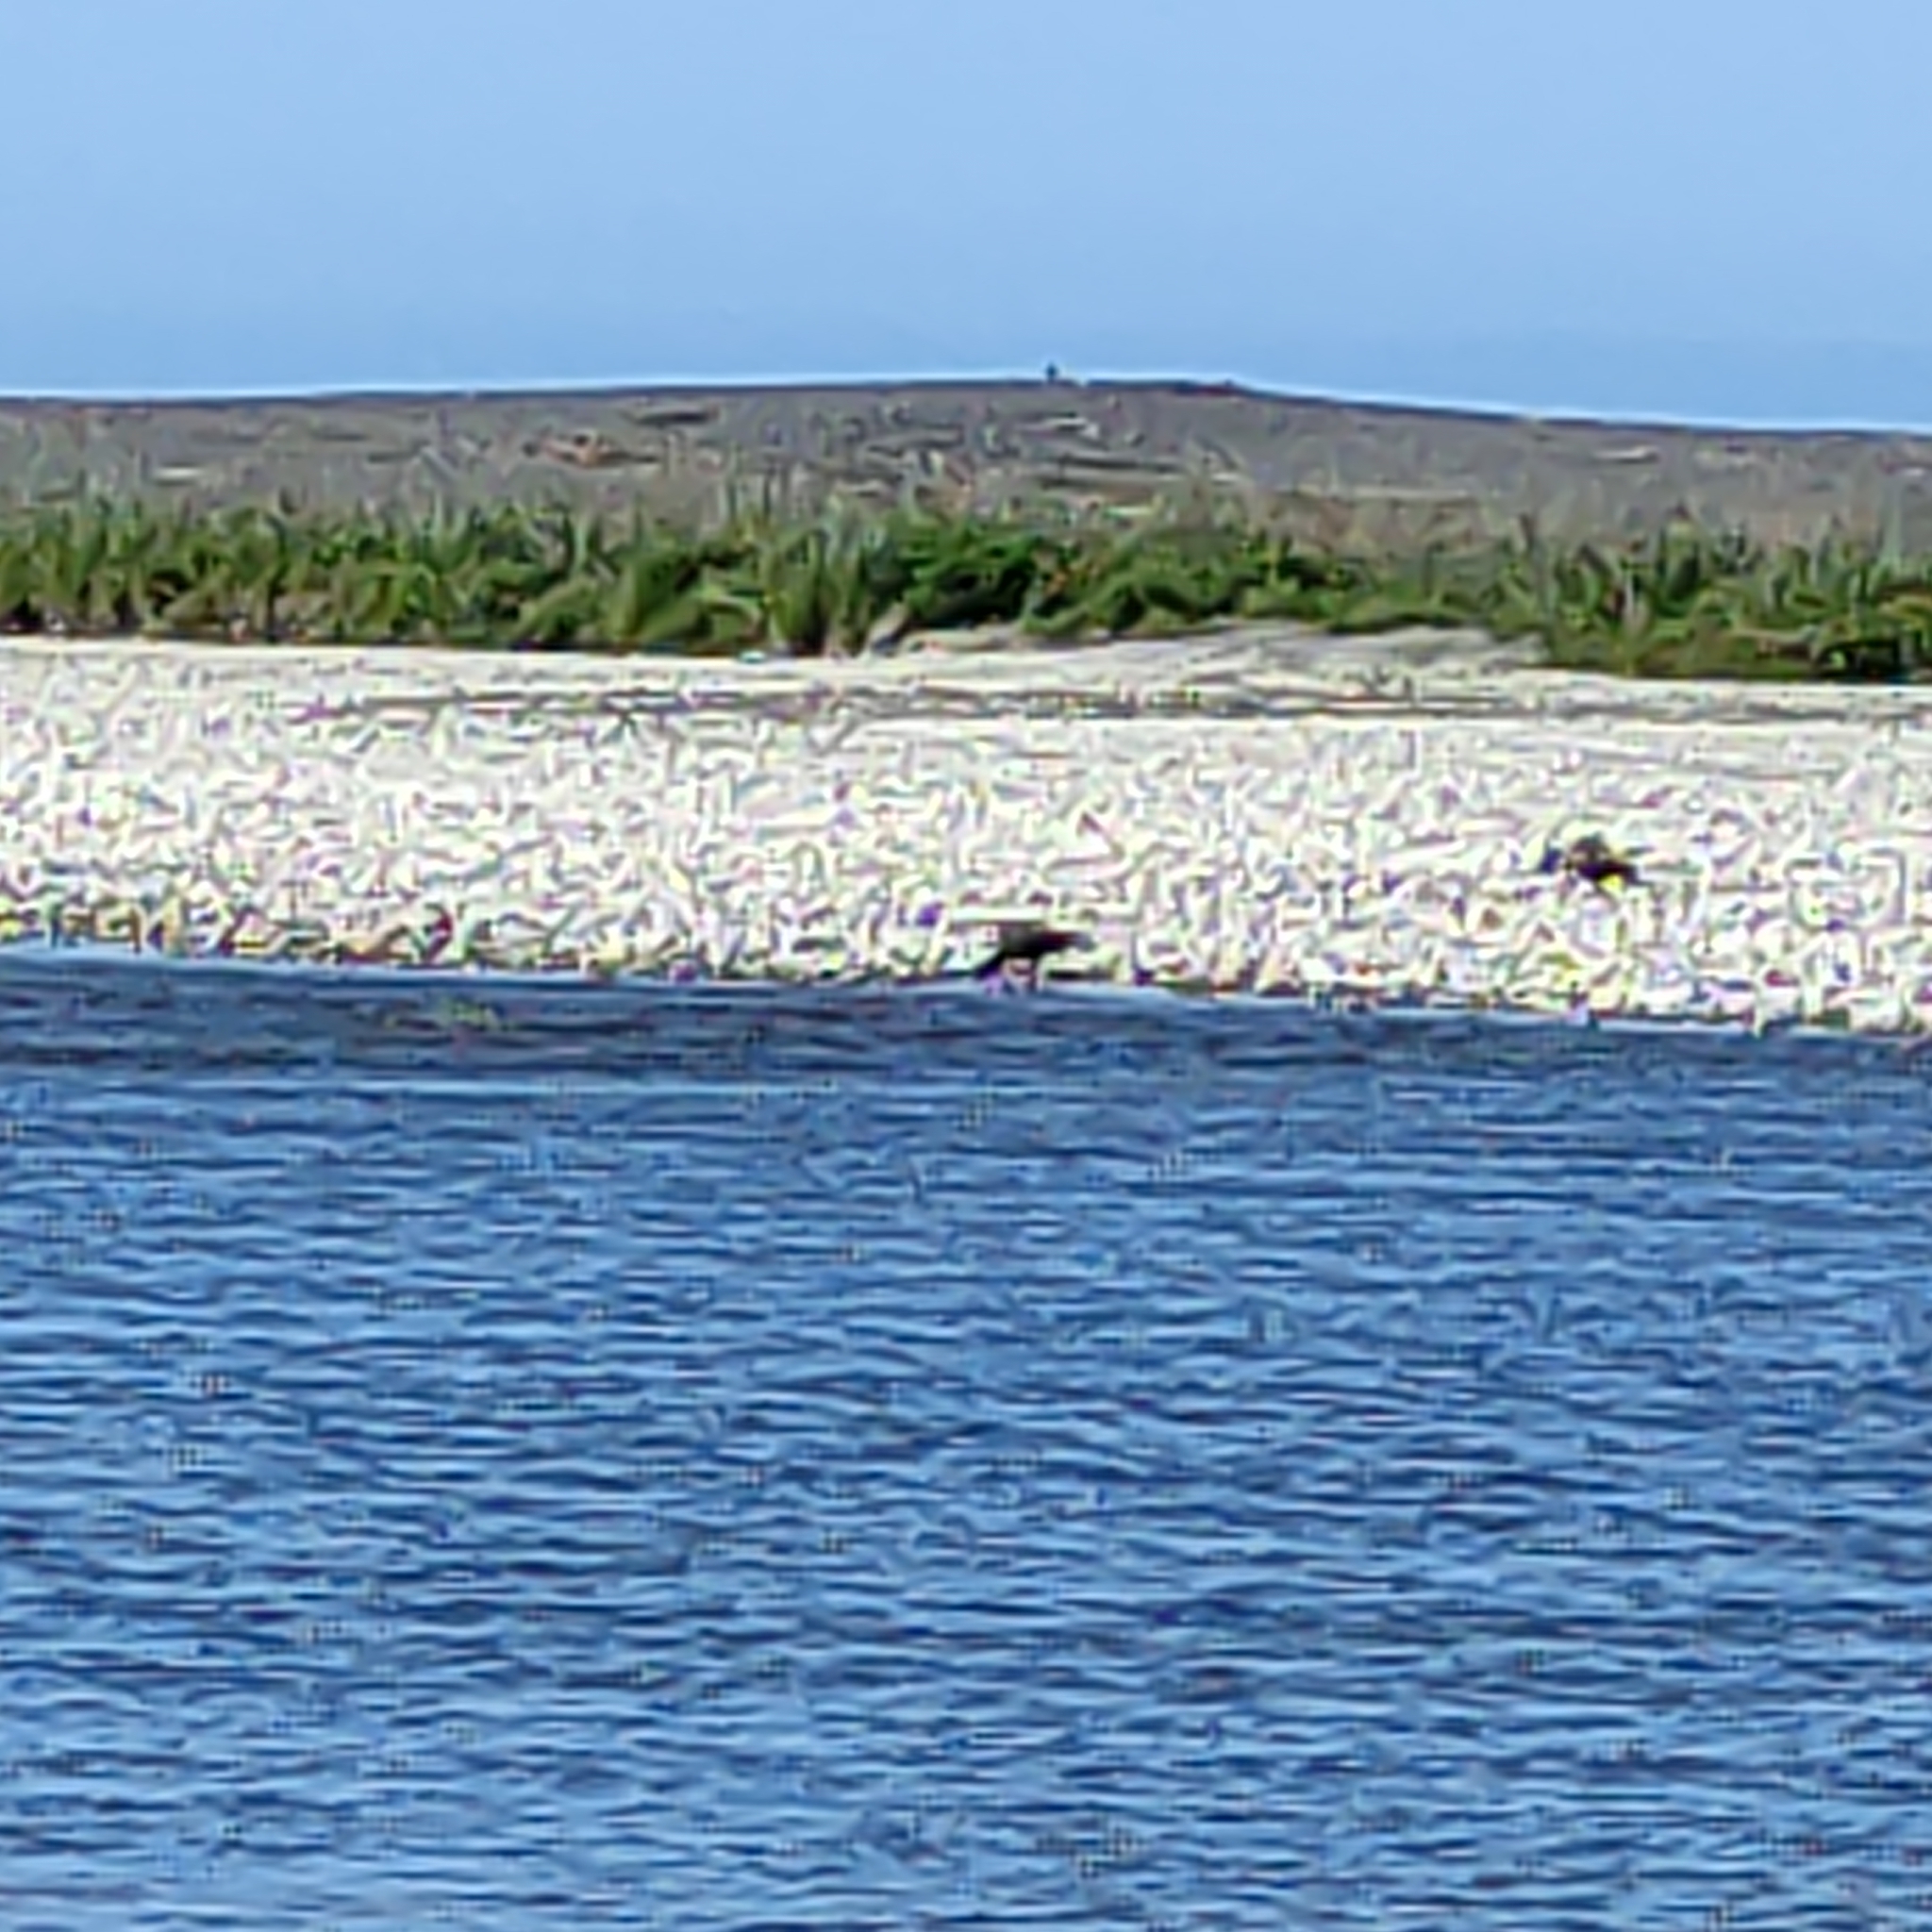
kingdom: Animalia
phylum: Chordata
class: Aves
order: Anseriformes
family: Anatidae
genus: Tadorna
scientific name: Tadorna variegata
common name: Paradise shelduck
